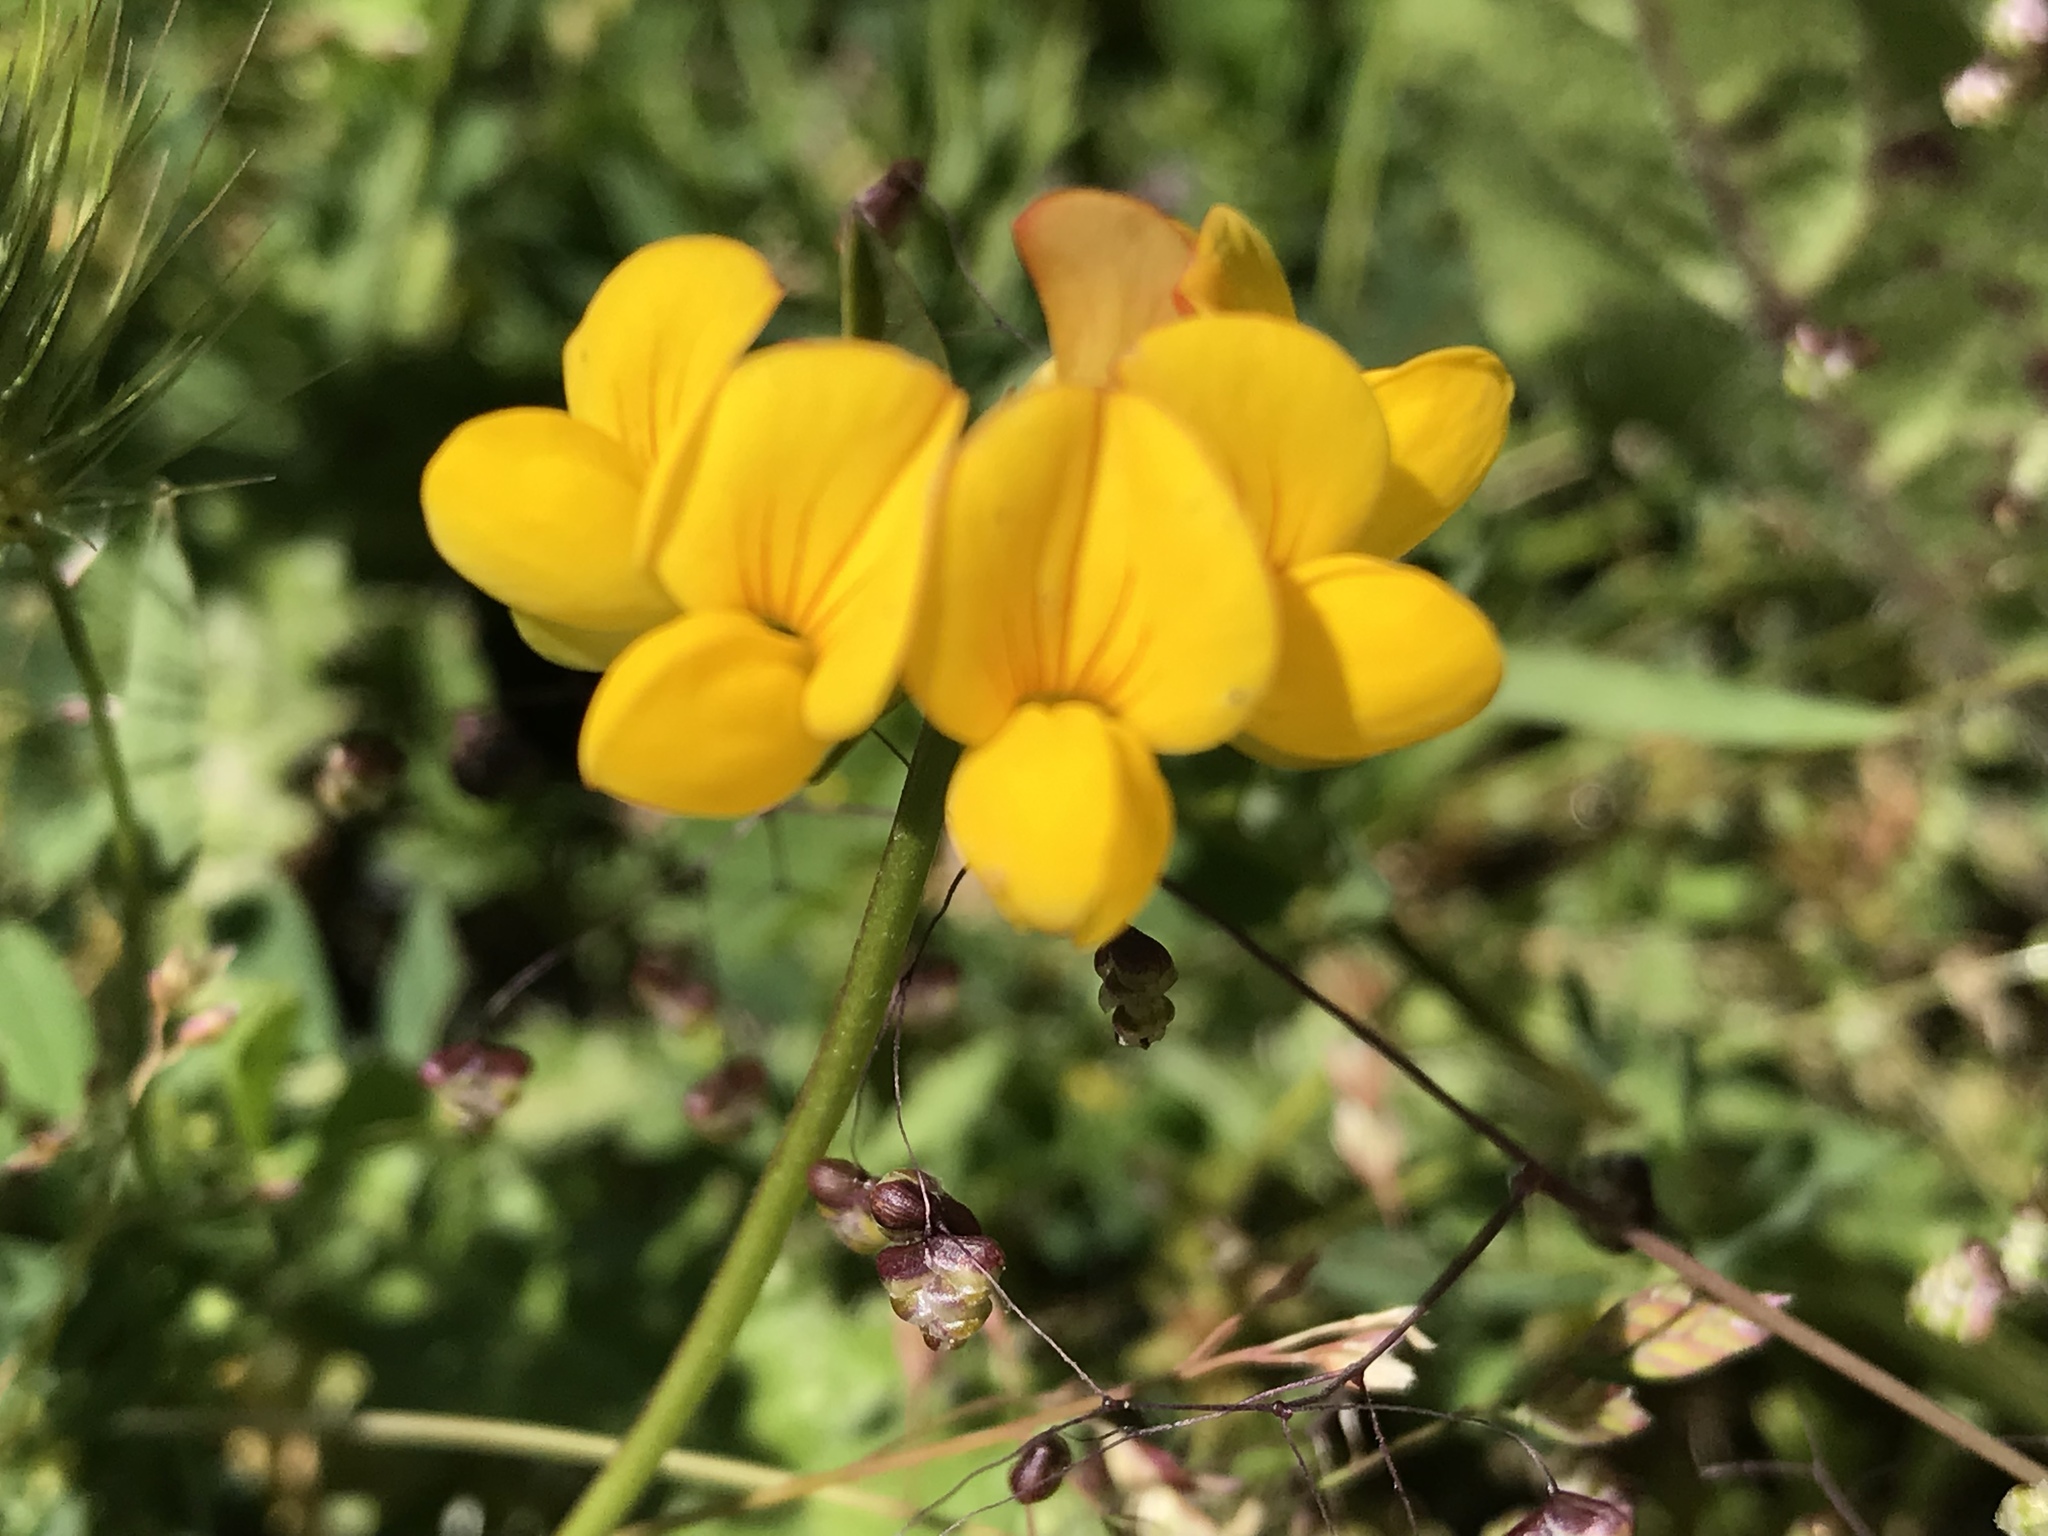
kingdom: Plantae
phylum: Tracheophyta
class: Magnoliopsida
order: Fabales
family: Fabaceae
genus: Lotus
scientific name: Lotus corniculatus
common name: Common bird's-foot-trefoil
